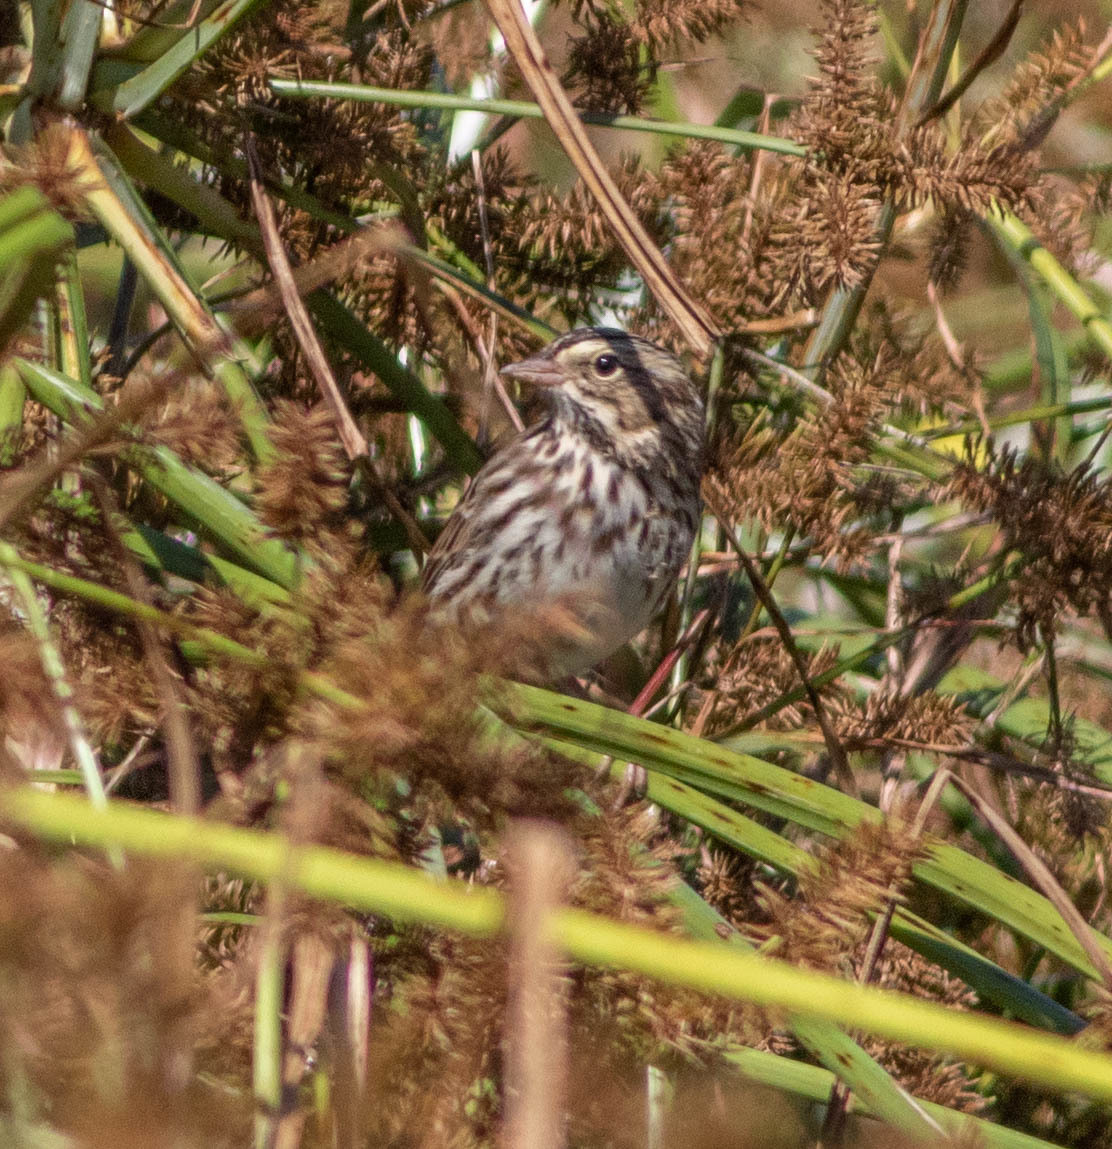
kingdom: Animalia
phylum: Chordata
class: Aves
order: Passeriformes
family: Passerellidae
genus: Passerculus
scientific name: Passerculus sandwichensis
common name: Savannah sparrow
